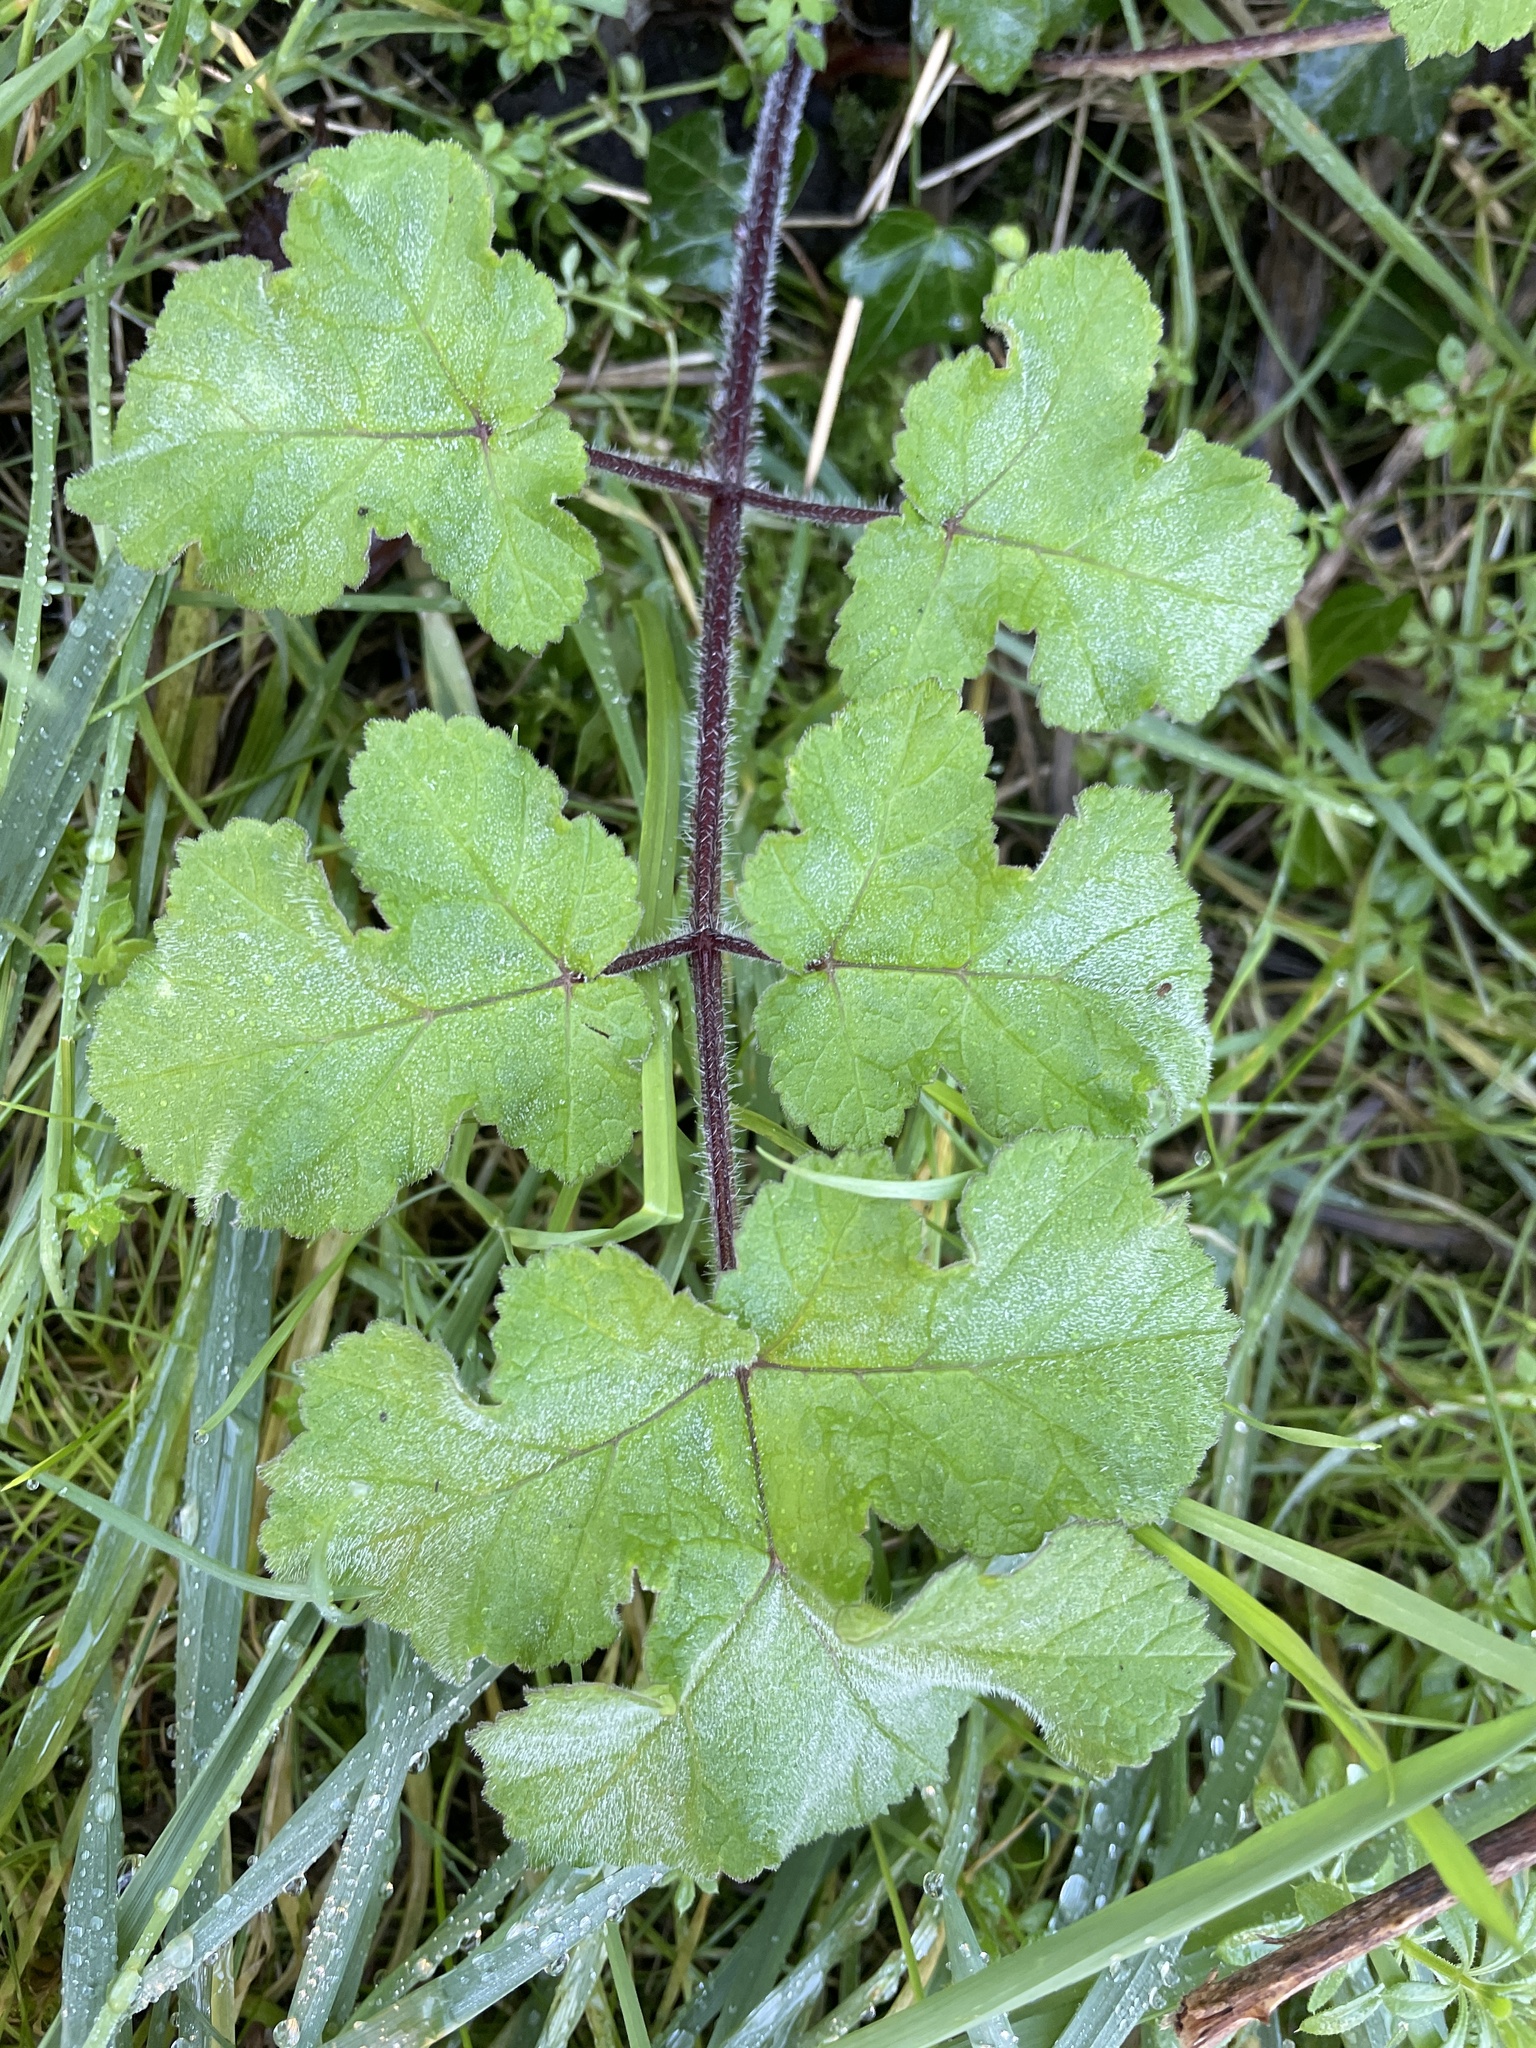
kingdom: Plantae
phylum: Tracheophyta
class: Magnoliopsida
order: Apiales
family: Apiaceae
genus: Heracleum
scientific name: Heracleum sphondylium
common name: Hogweed
